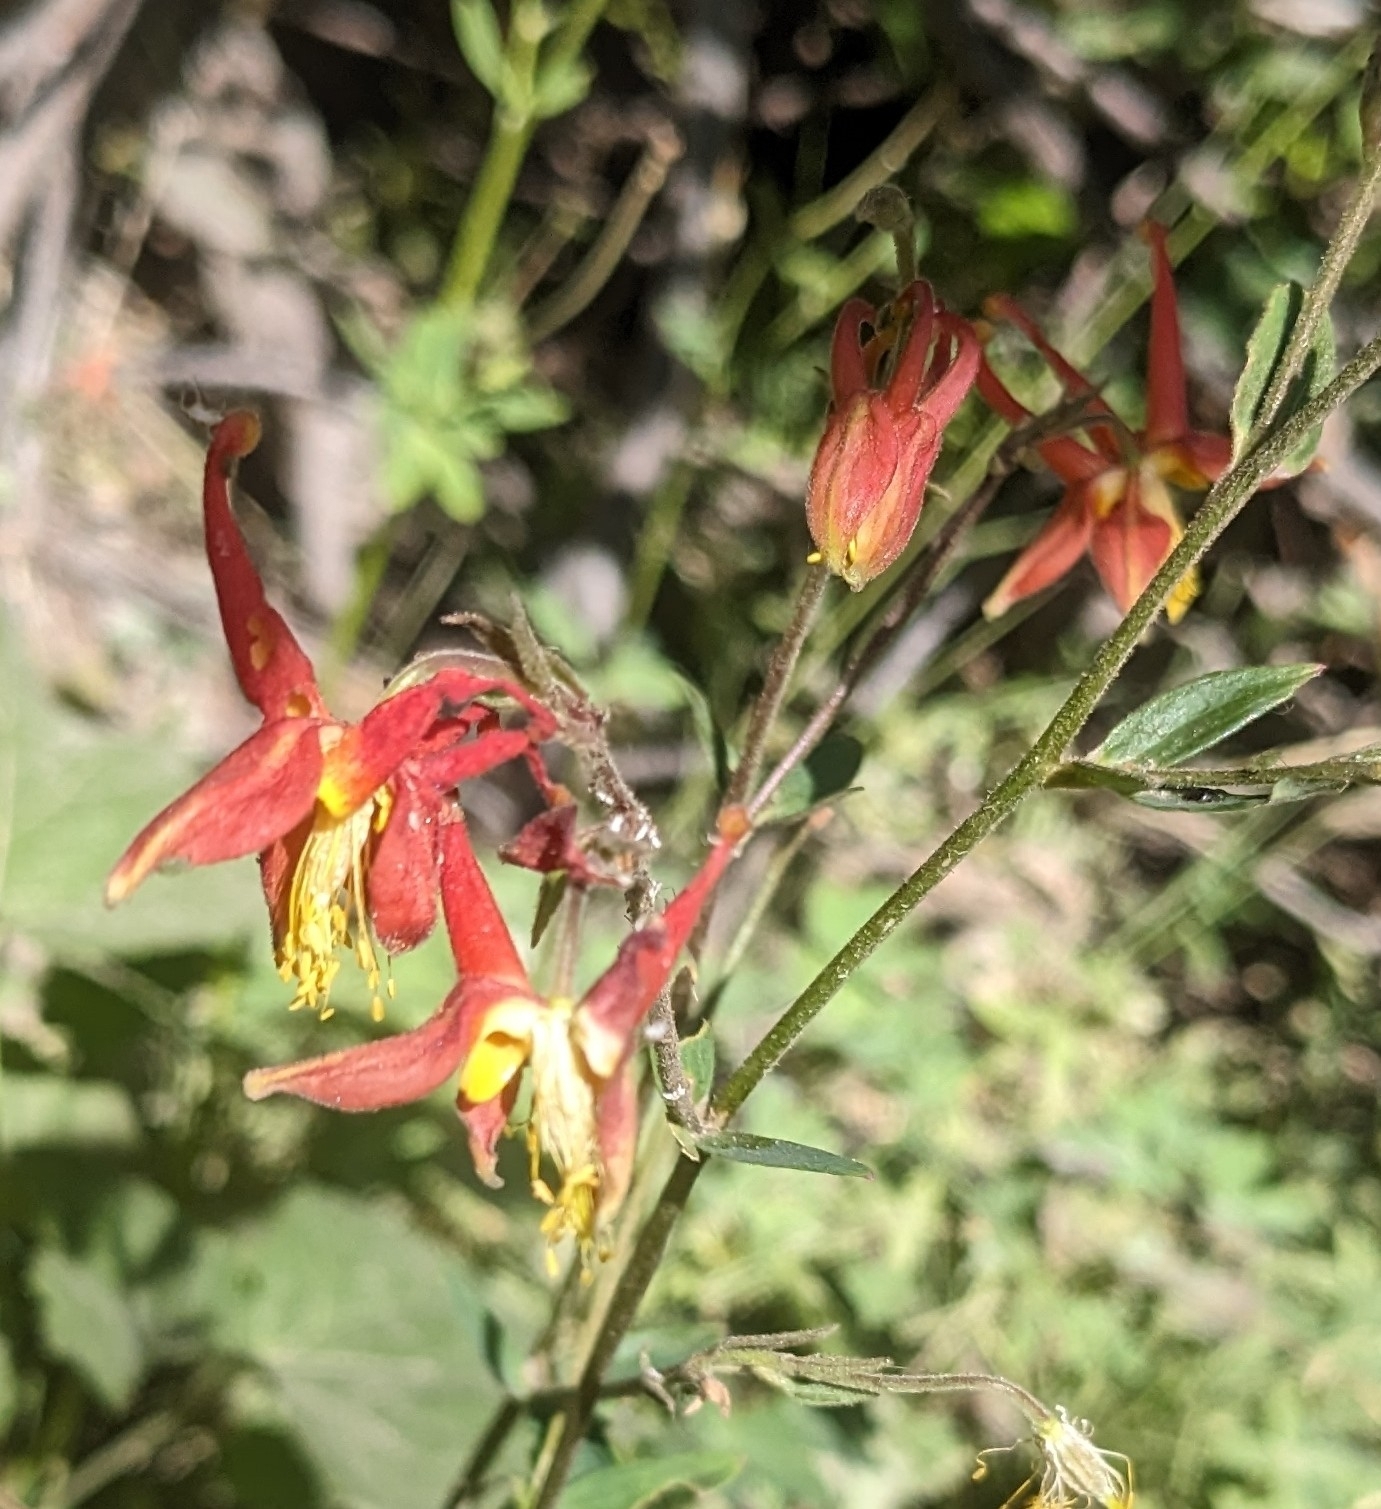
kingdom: Plantae
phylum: Tracheophyta
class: Magnoliopsida
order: Ranunculales
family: Ranunculaceae
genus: Aquilegia
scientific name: Aquilegia formosa
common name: Sitka columbine
